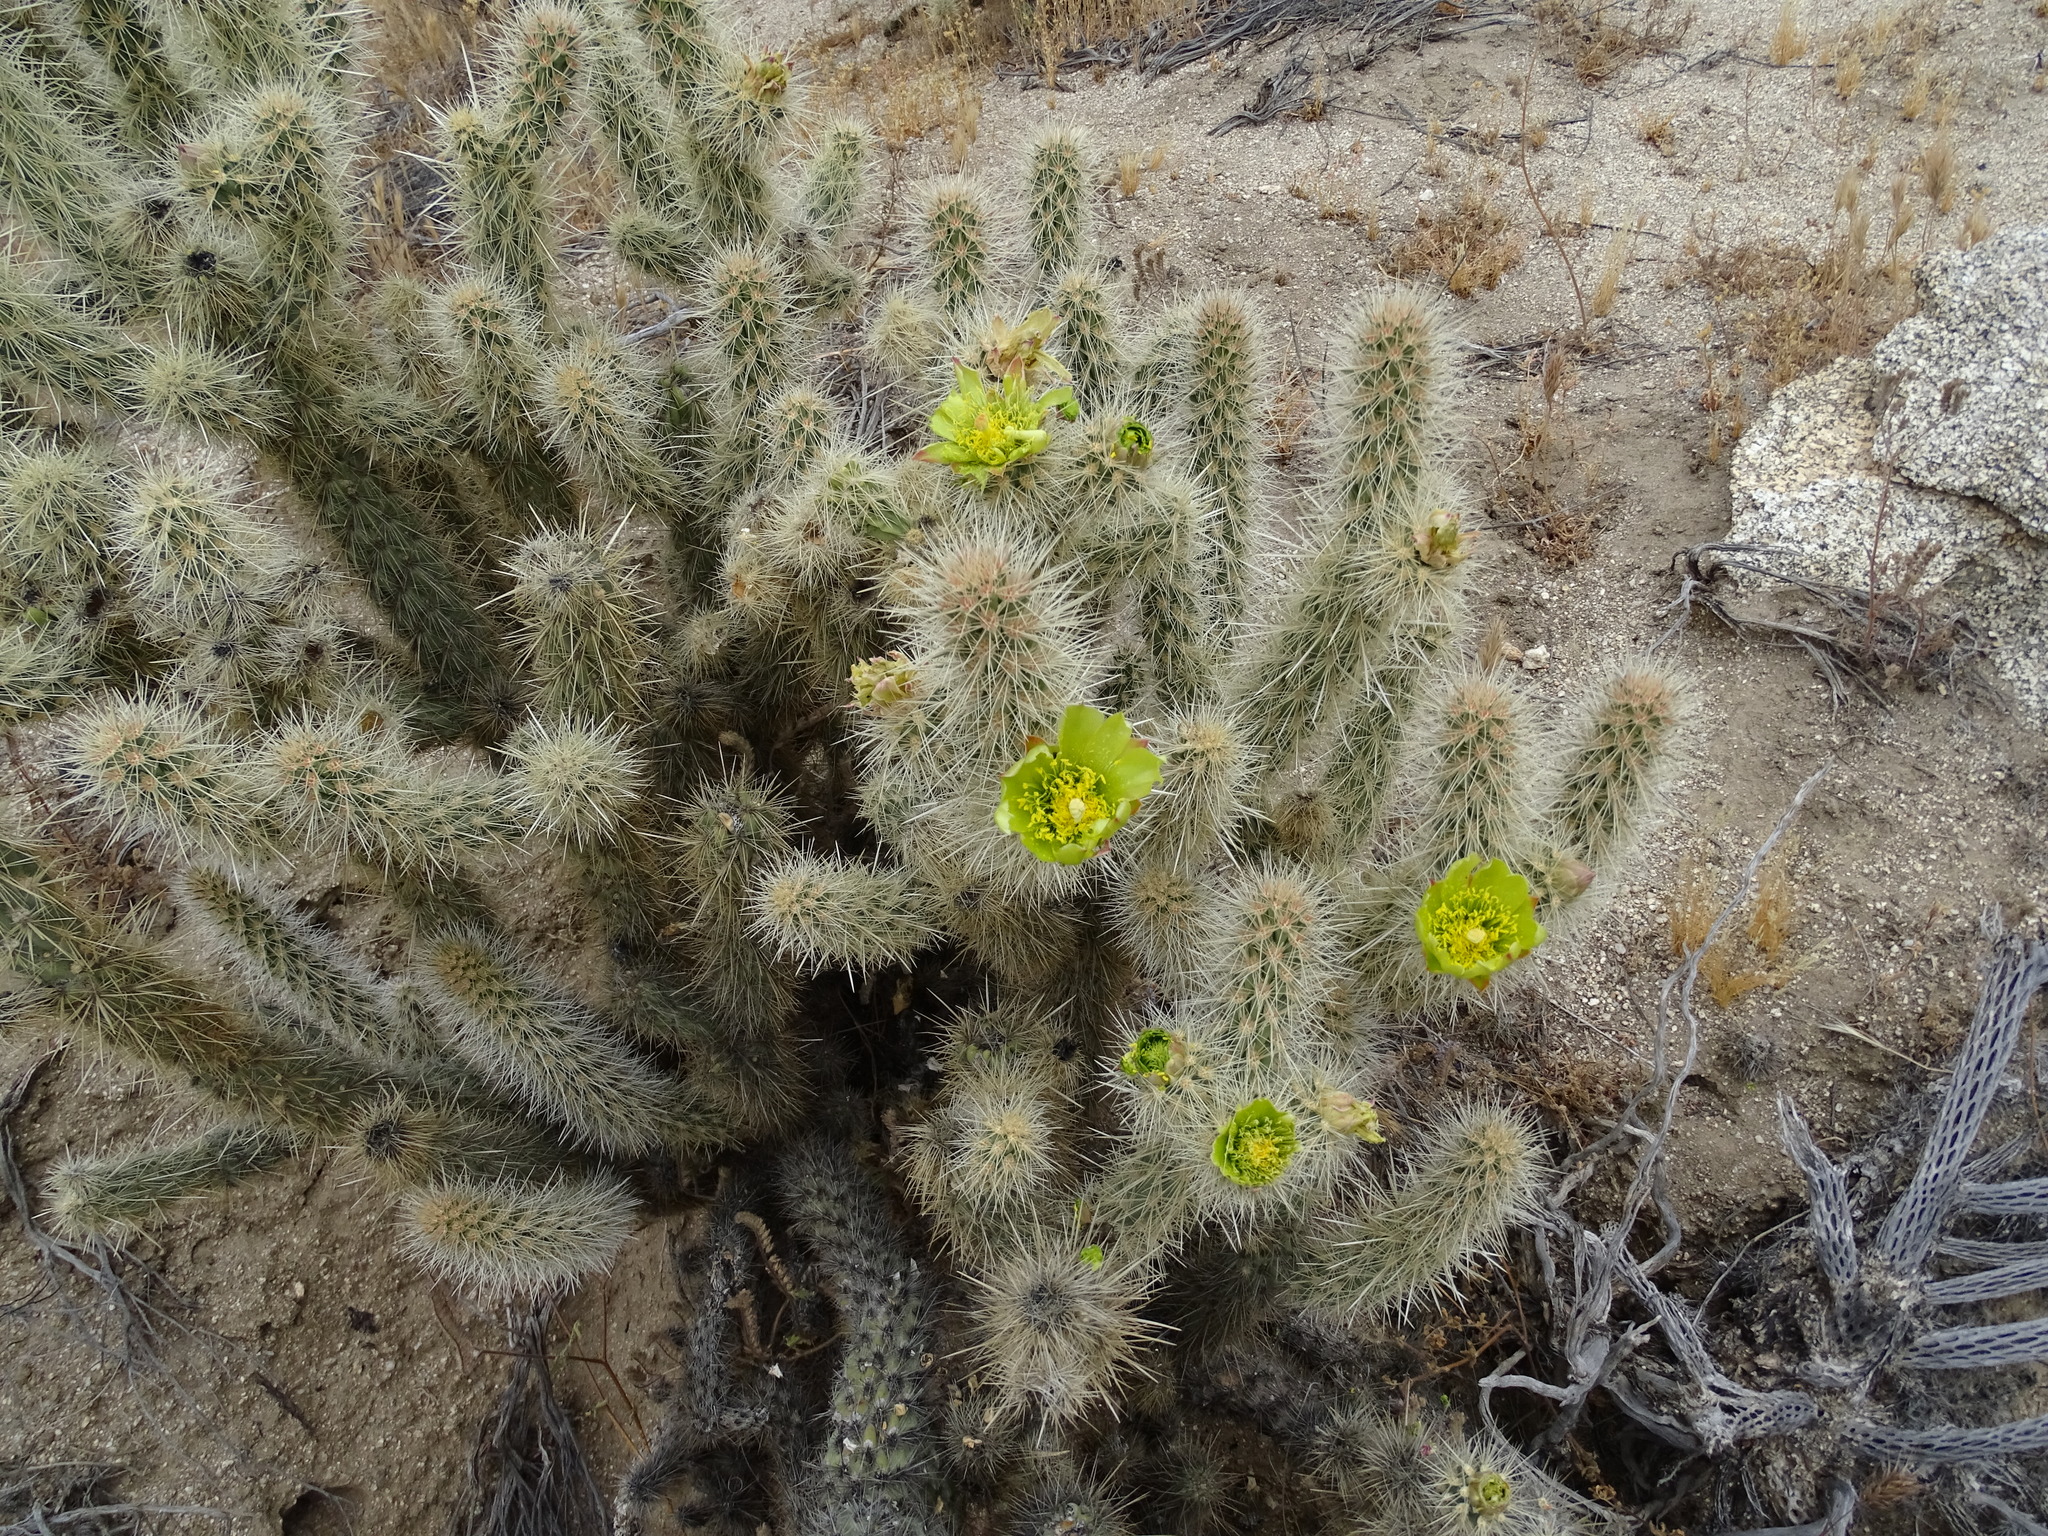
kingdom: Plantae
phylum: Tracheophyta
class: Magnoliopsida
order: Caryophyllales
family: Cactaceae
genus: Cylindropuntia
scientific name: Cylindropuntia ganderi
